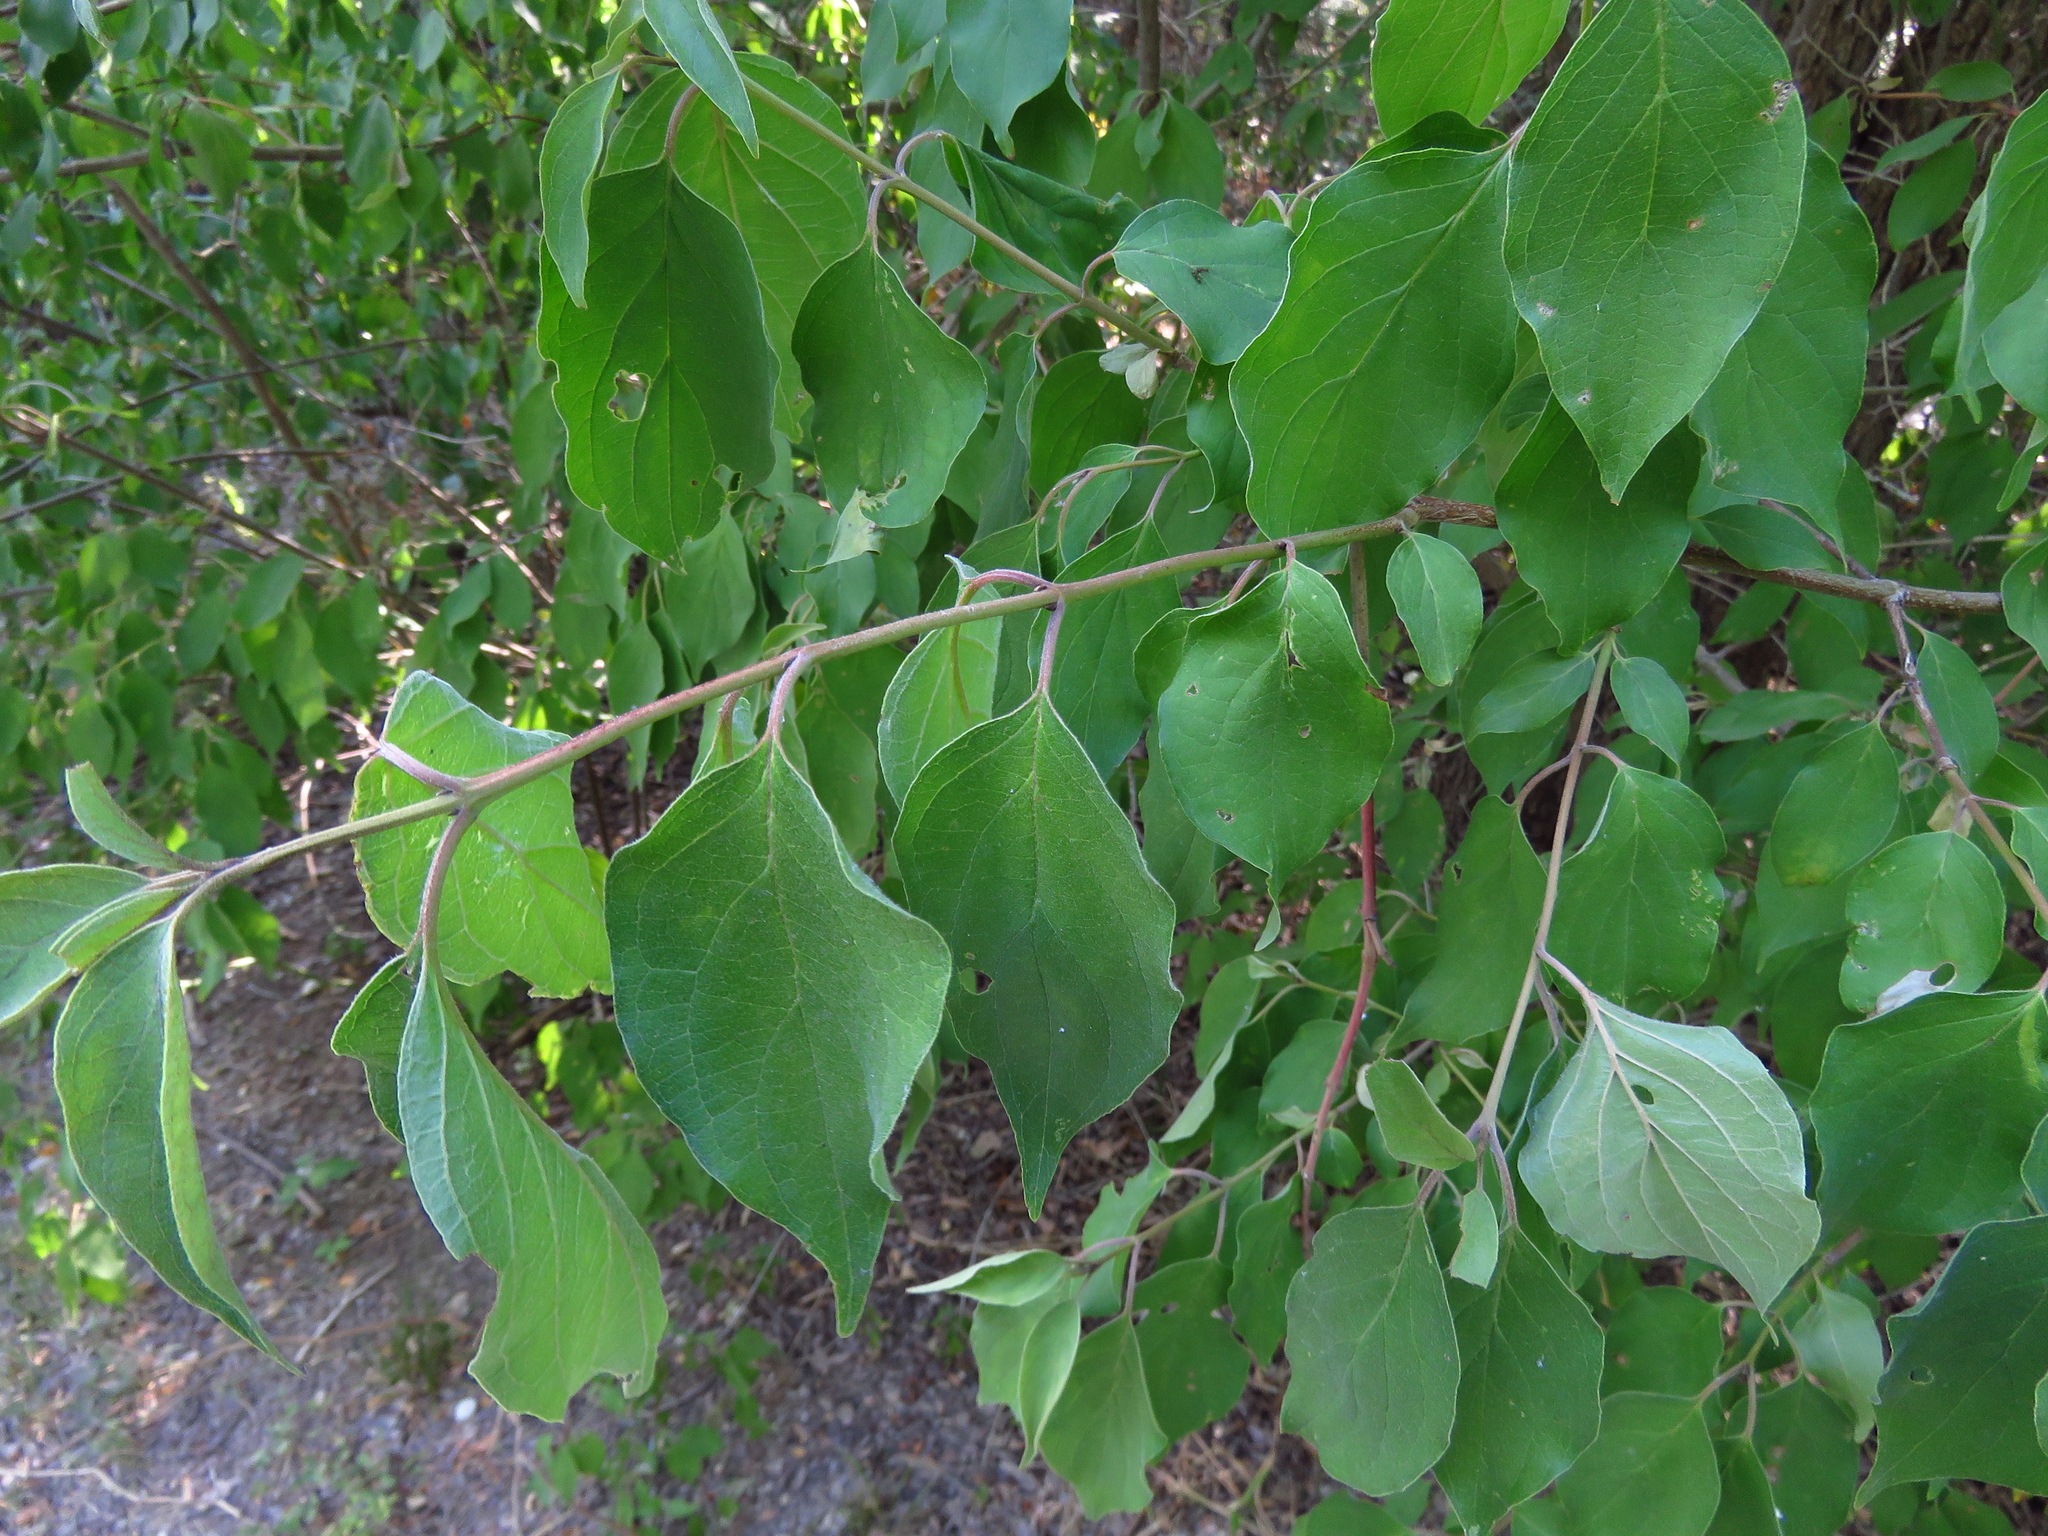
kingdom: Plantae
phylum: Tracheophyta
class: Magnoliopsida
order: Cornales
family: Cornaceae
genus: Cornus
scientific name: Cornus drummondii
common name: Rough-leaf dogwood
